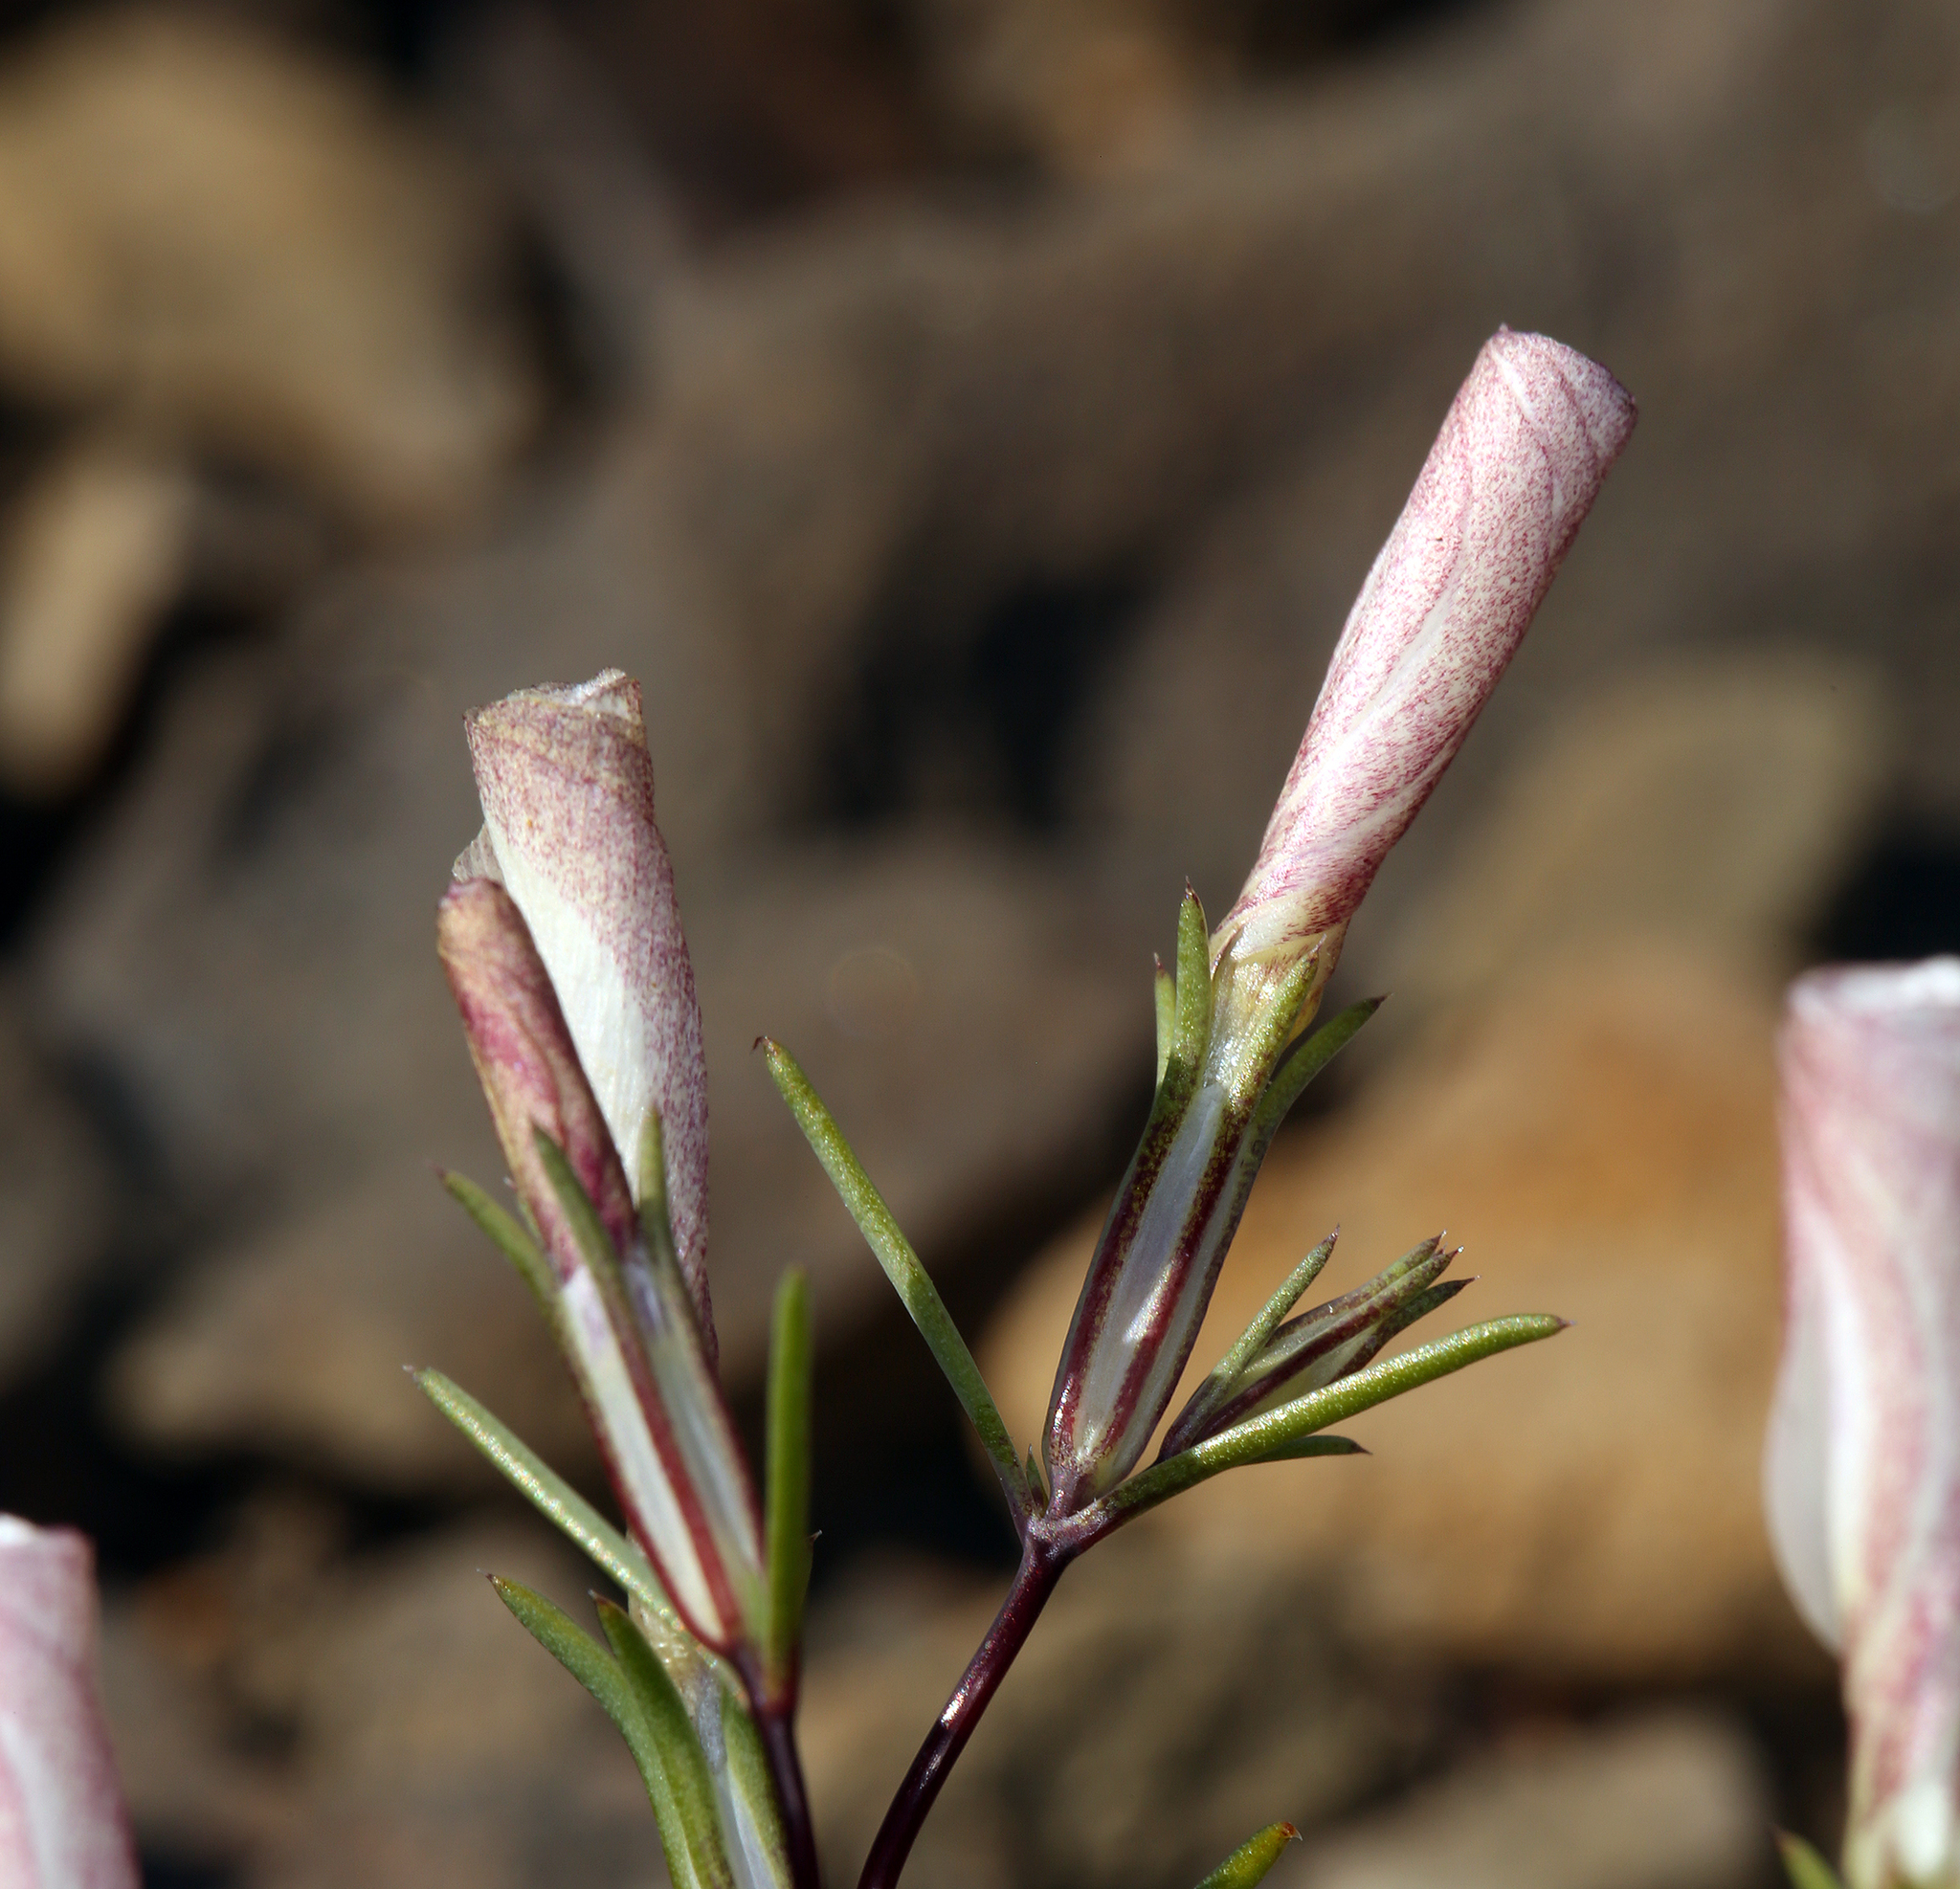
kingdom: Plantae
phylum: Tracheophyta
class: Magnoliopsida
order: Ericales
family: Polemoniaceae
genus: Linanthus
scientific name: Linanthus dichotomus
